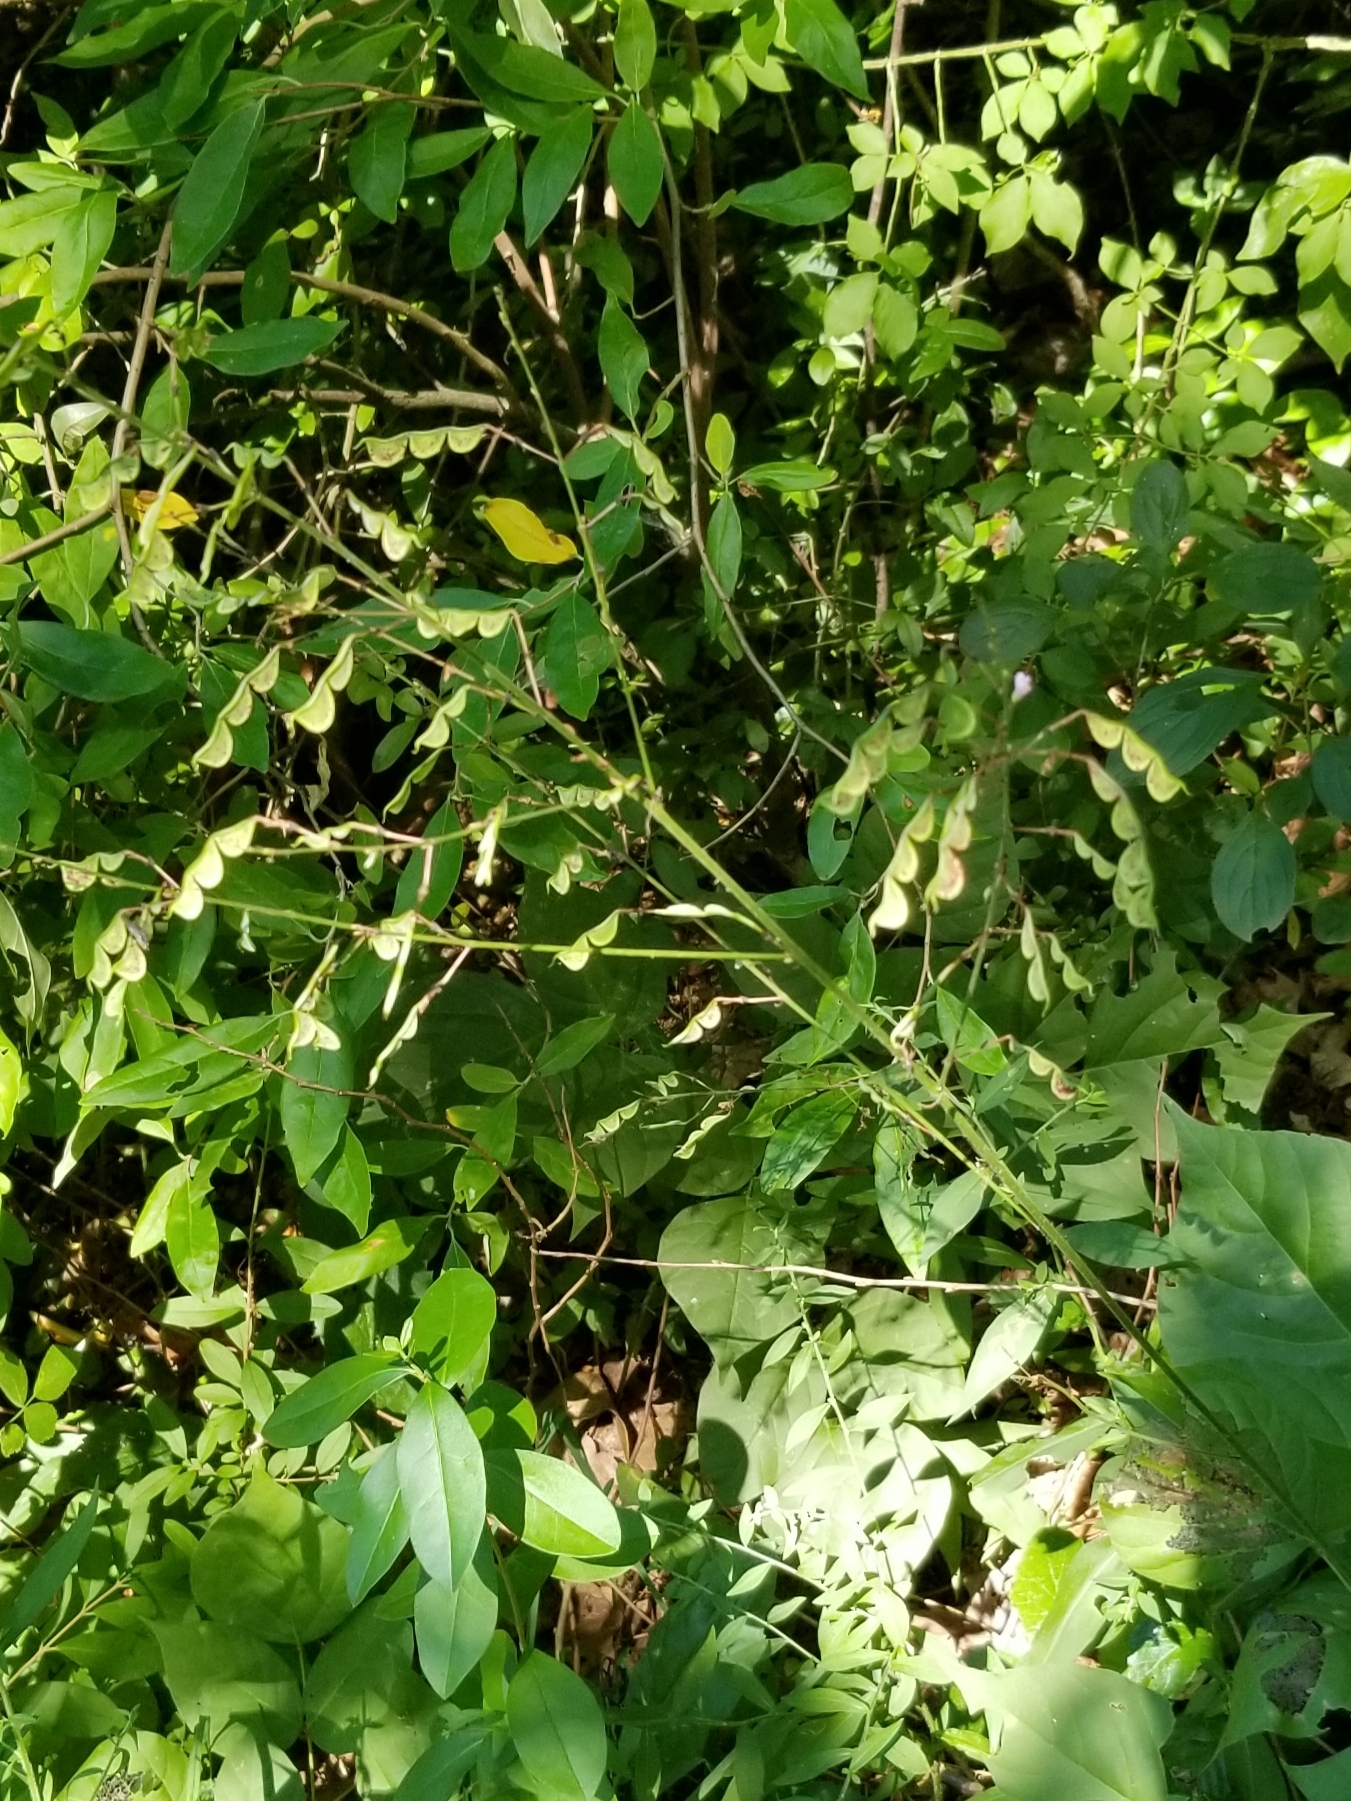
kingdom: Plantae
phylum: Tracheophyta
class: Magnoliopsida
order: Fabales
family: Fabaceae
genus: Hylodesmum
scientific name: Hylodesmum glutinosum
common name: Clustered-leaved tick-trefoil
